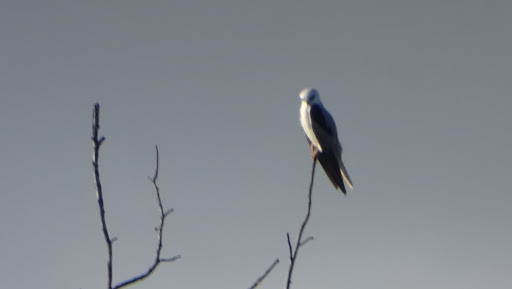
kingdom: Animalia
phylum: Chordata
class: Aves
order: Accipitriformes
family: Accipitridae
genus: Elanus
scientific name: Elanus leucurus
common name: White-tailed kite
